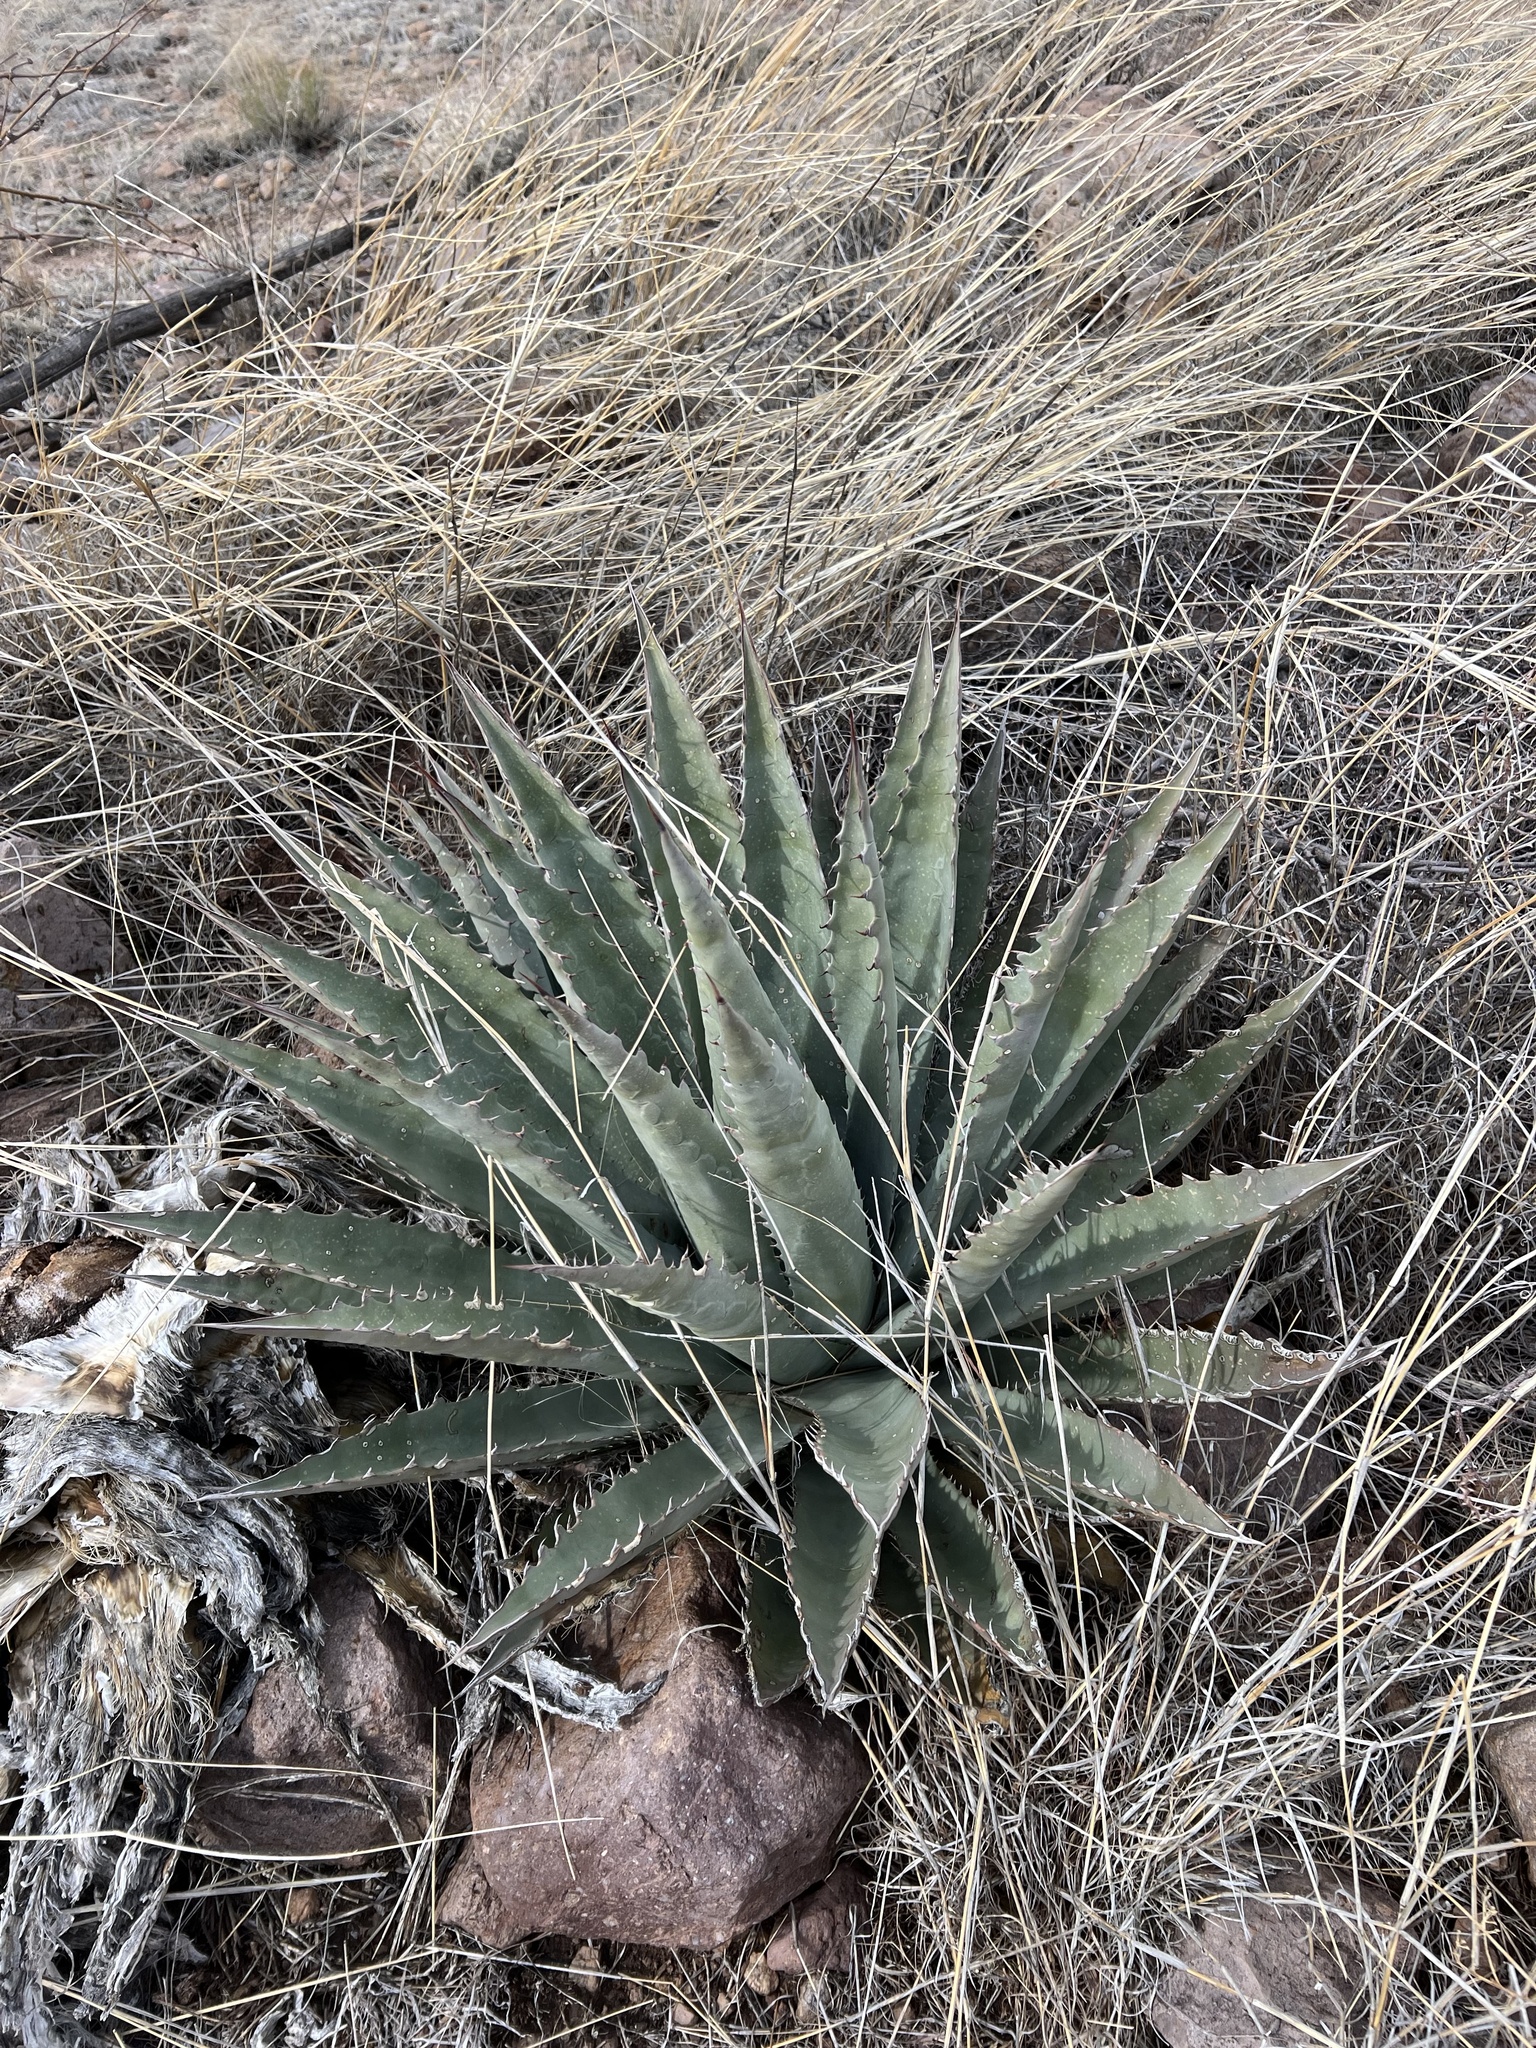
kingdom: Plantae
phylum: Tracheophyta
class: Liliopsida
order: Asparagales
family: Asparagaceae
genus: Agave
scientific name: Agave palmeri
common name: Palmer agave
